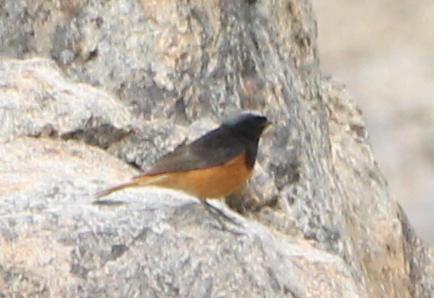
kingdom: Animalia
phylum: Chordata
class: Aves
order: Passeriformes
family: Muscicapidae
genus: Phoenicurus
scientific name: Phoenicurus ochruros
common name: Black redstart
